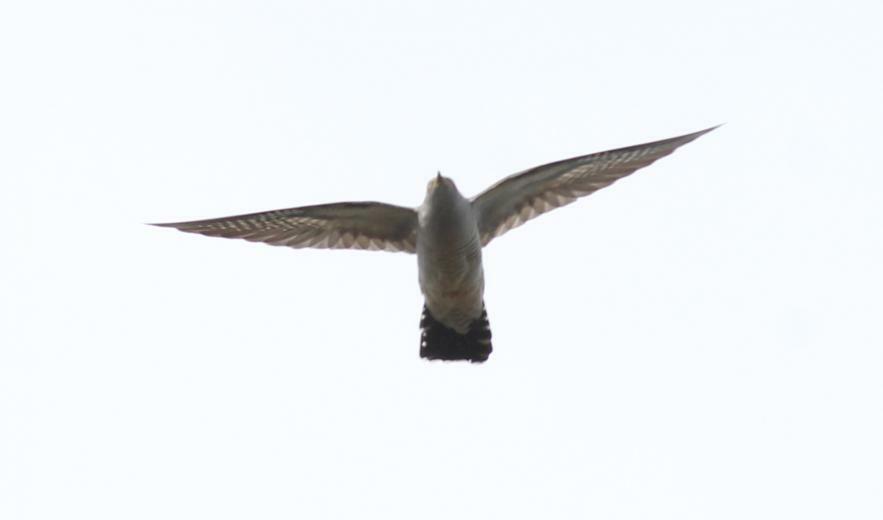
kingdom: Animalia
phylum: Chordata
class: Aves
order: Cuculiformes
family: Cuculidae
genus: Cuculus
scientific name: Cuculus canorus
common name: Common cuckoo
